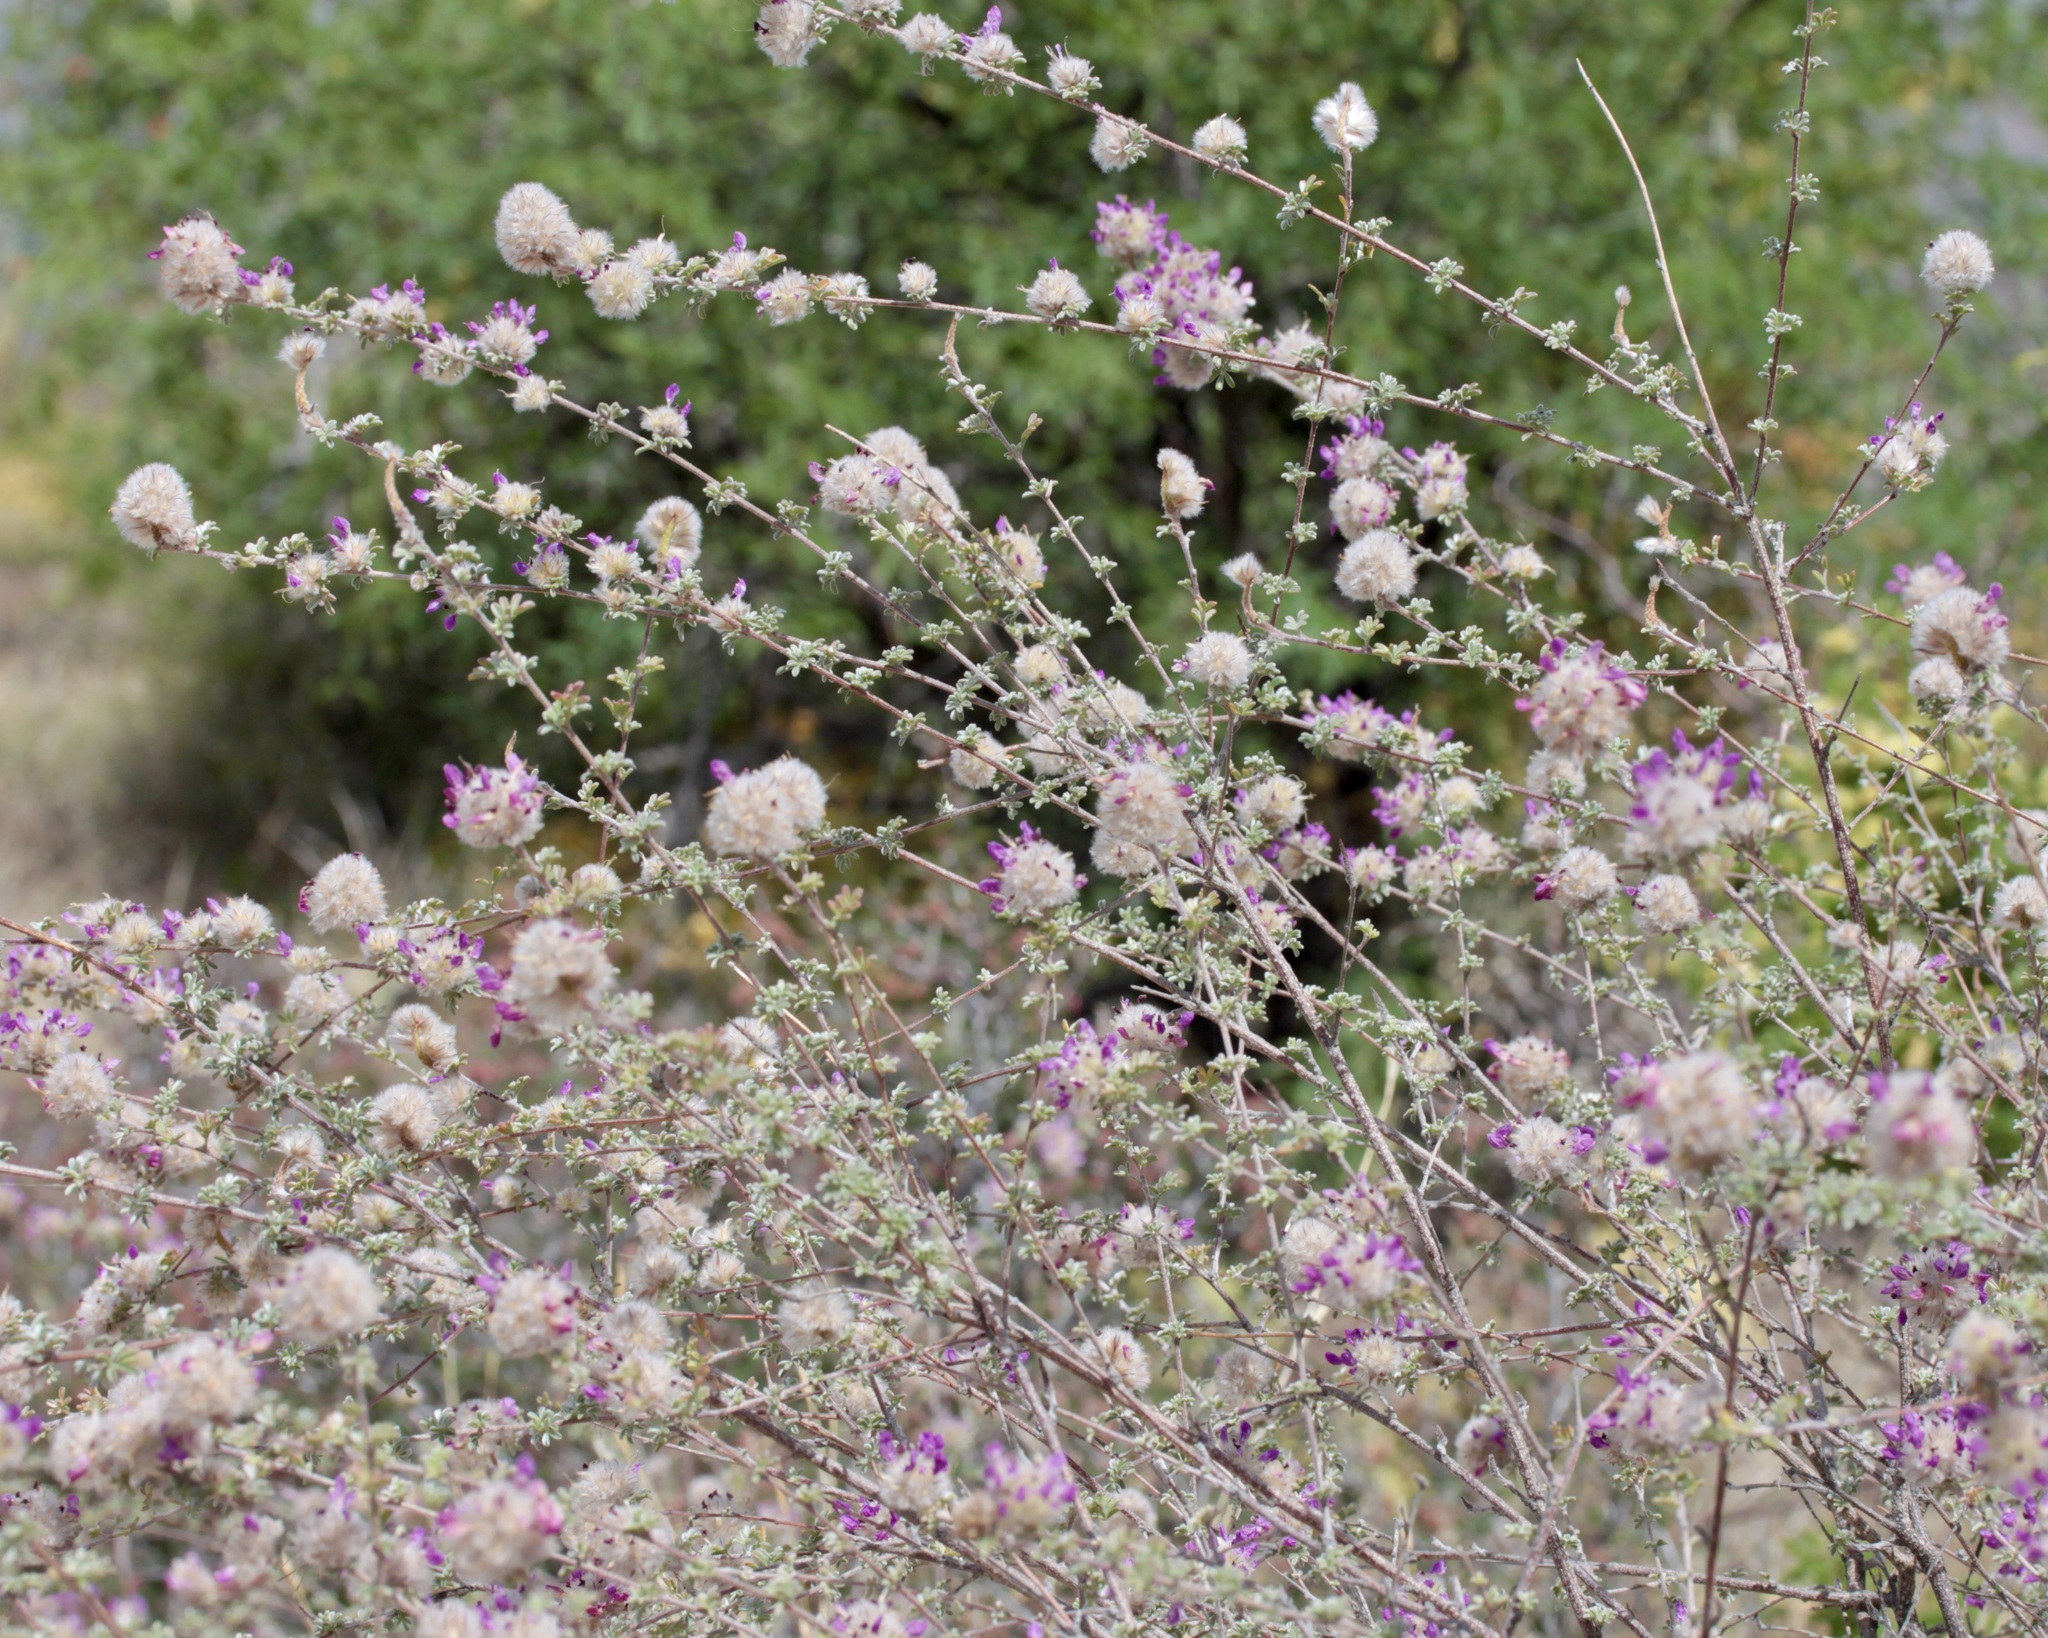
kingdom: Plantae
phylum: Tracheophyta
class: Magnoliopsida
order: Fabales
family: Fabaceae
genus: Dalea
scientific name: Dalea pulchra
